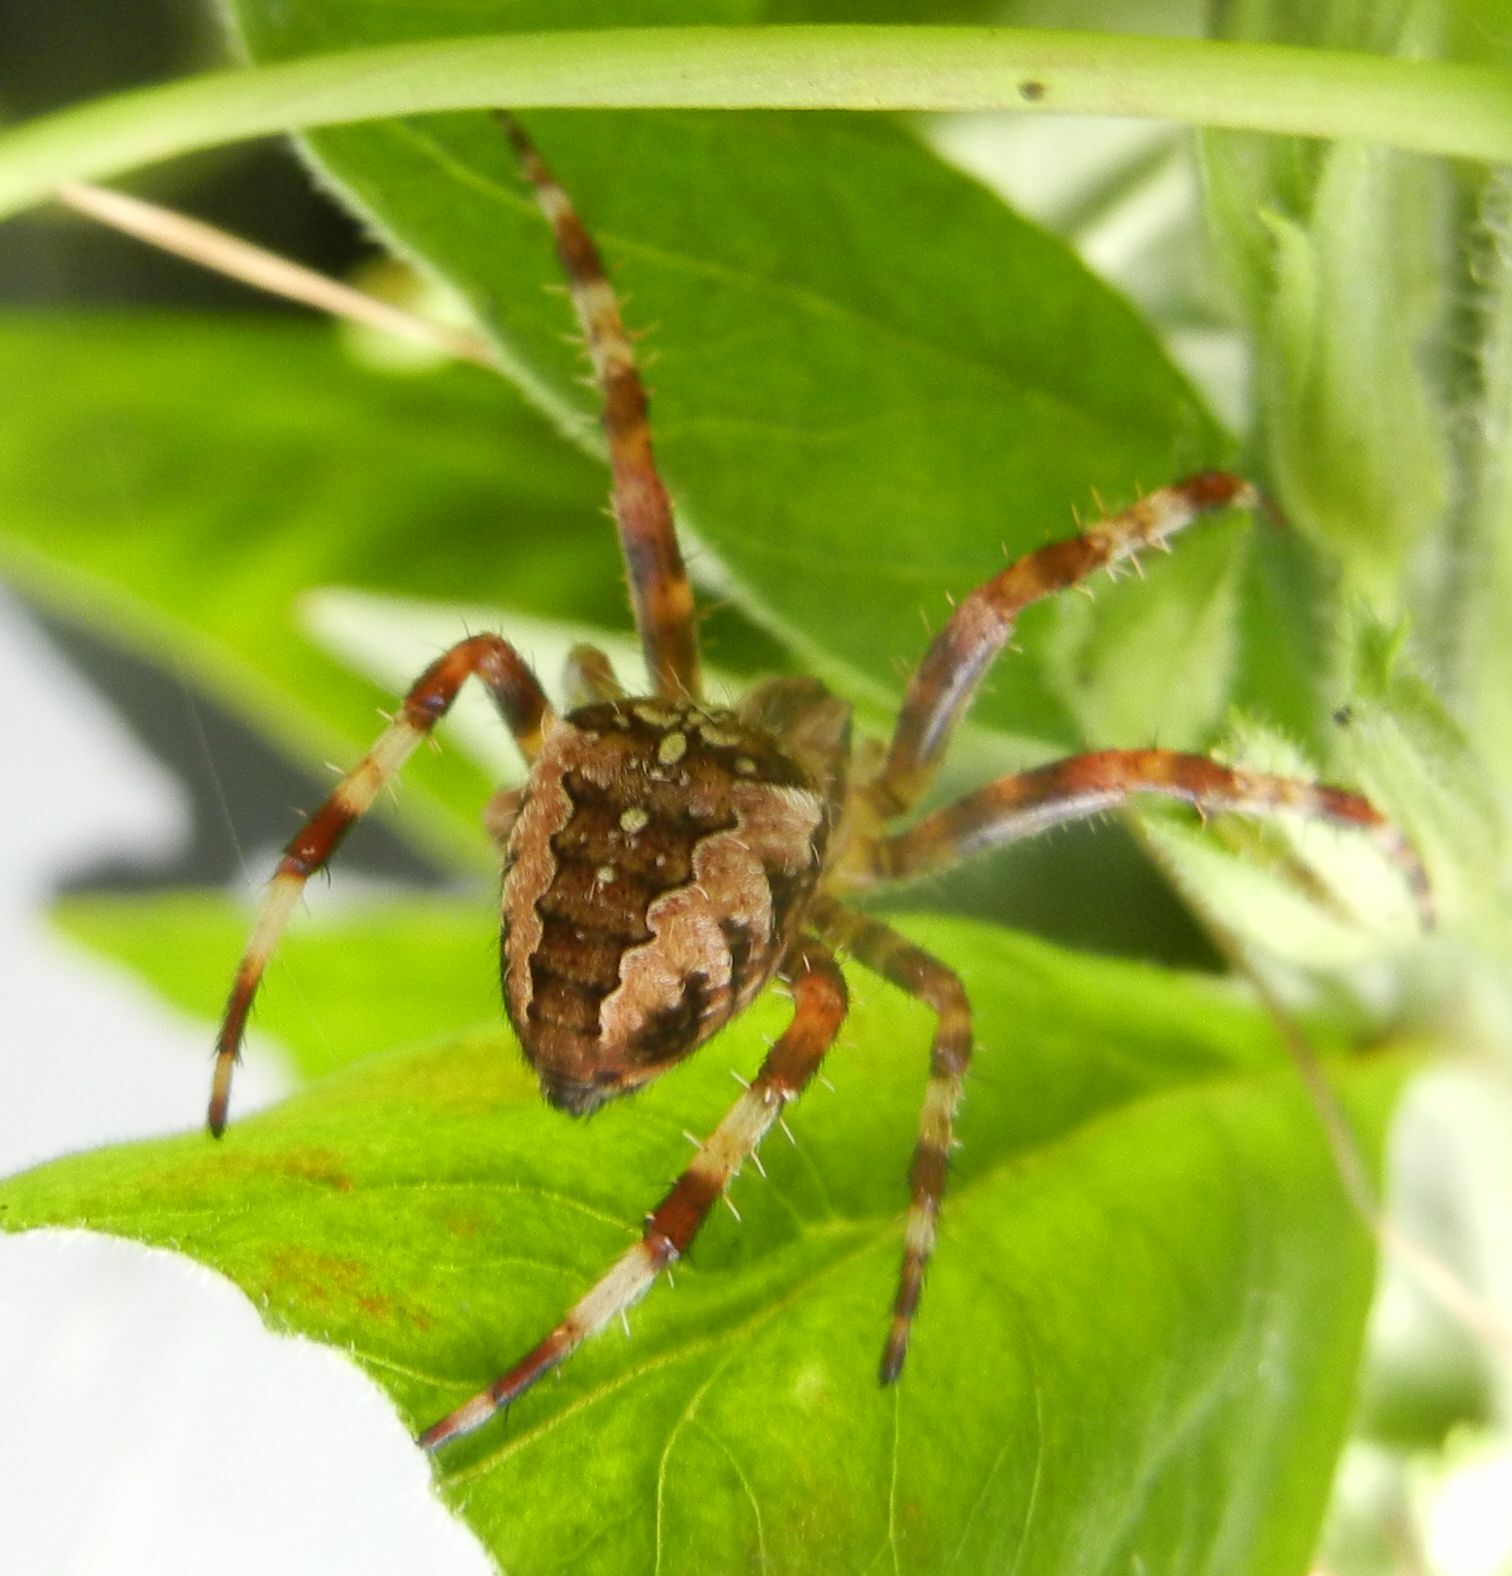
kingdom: Animalia
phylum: Arthropoda
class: Arachnida
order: Araneae
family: Araneidae
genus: Araneus
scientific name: Araneus diadematus
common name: Cross orbweaver
